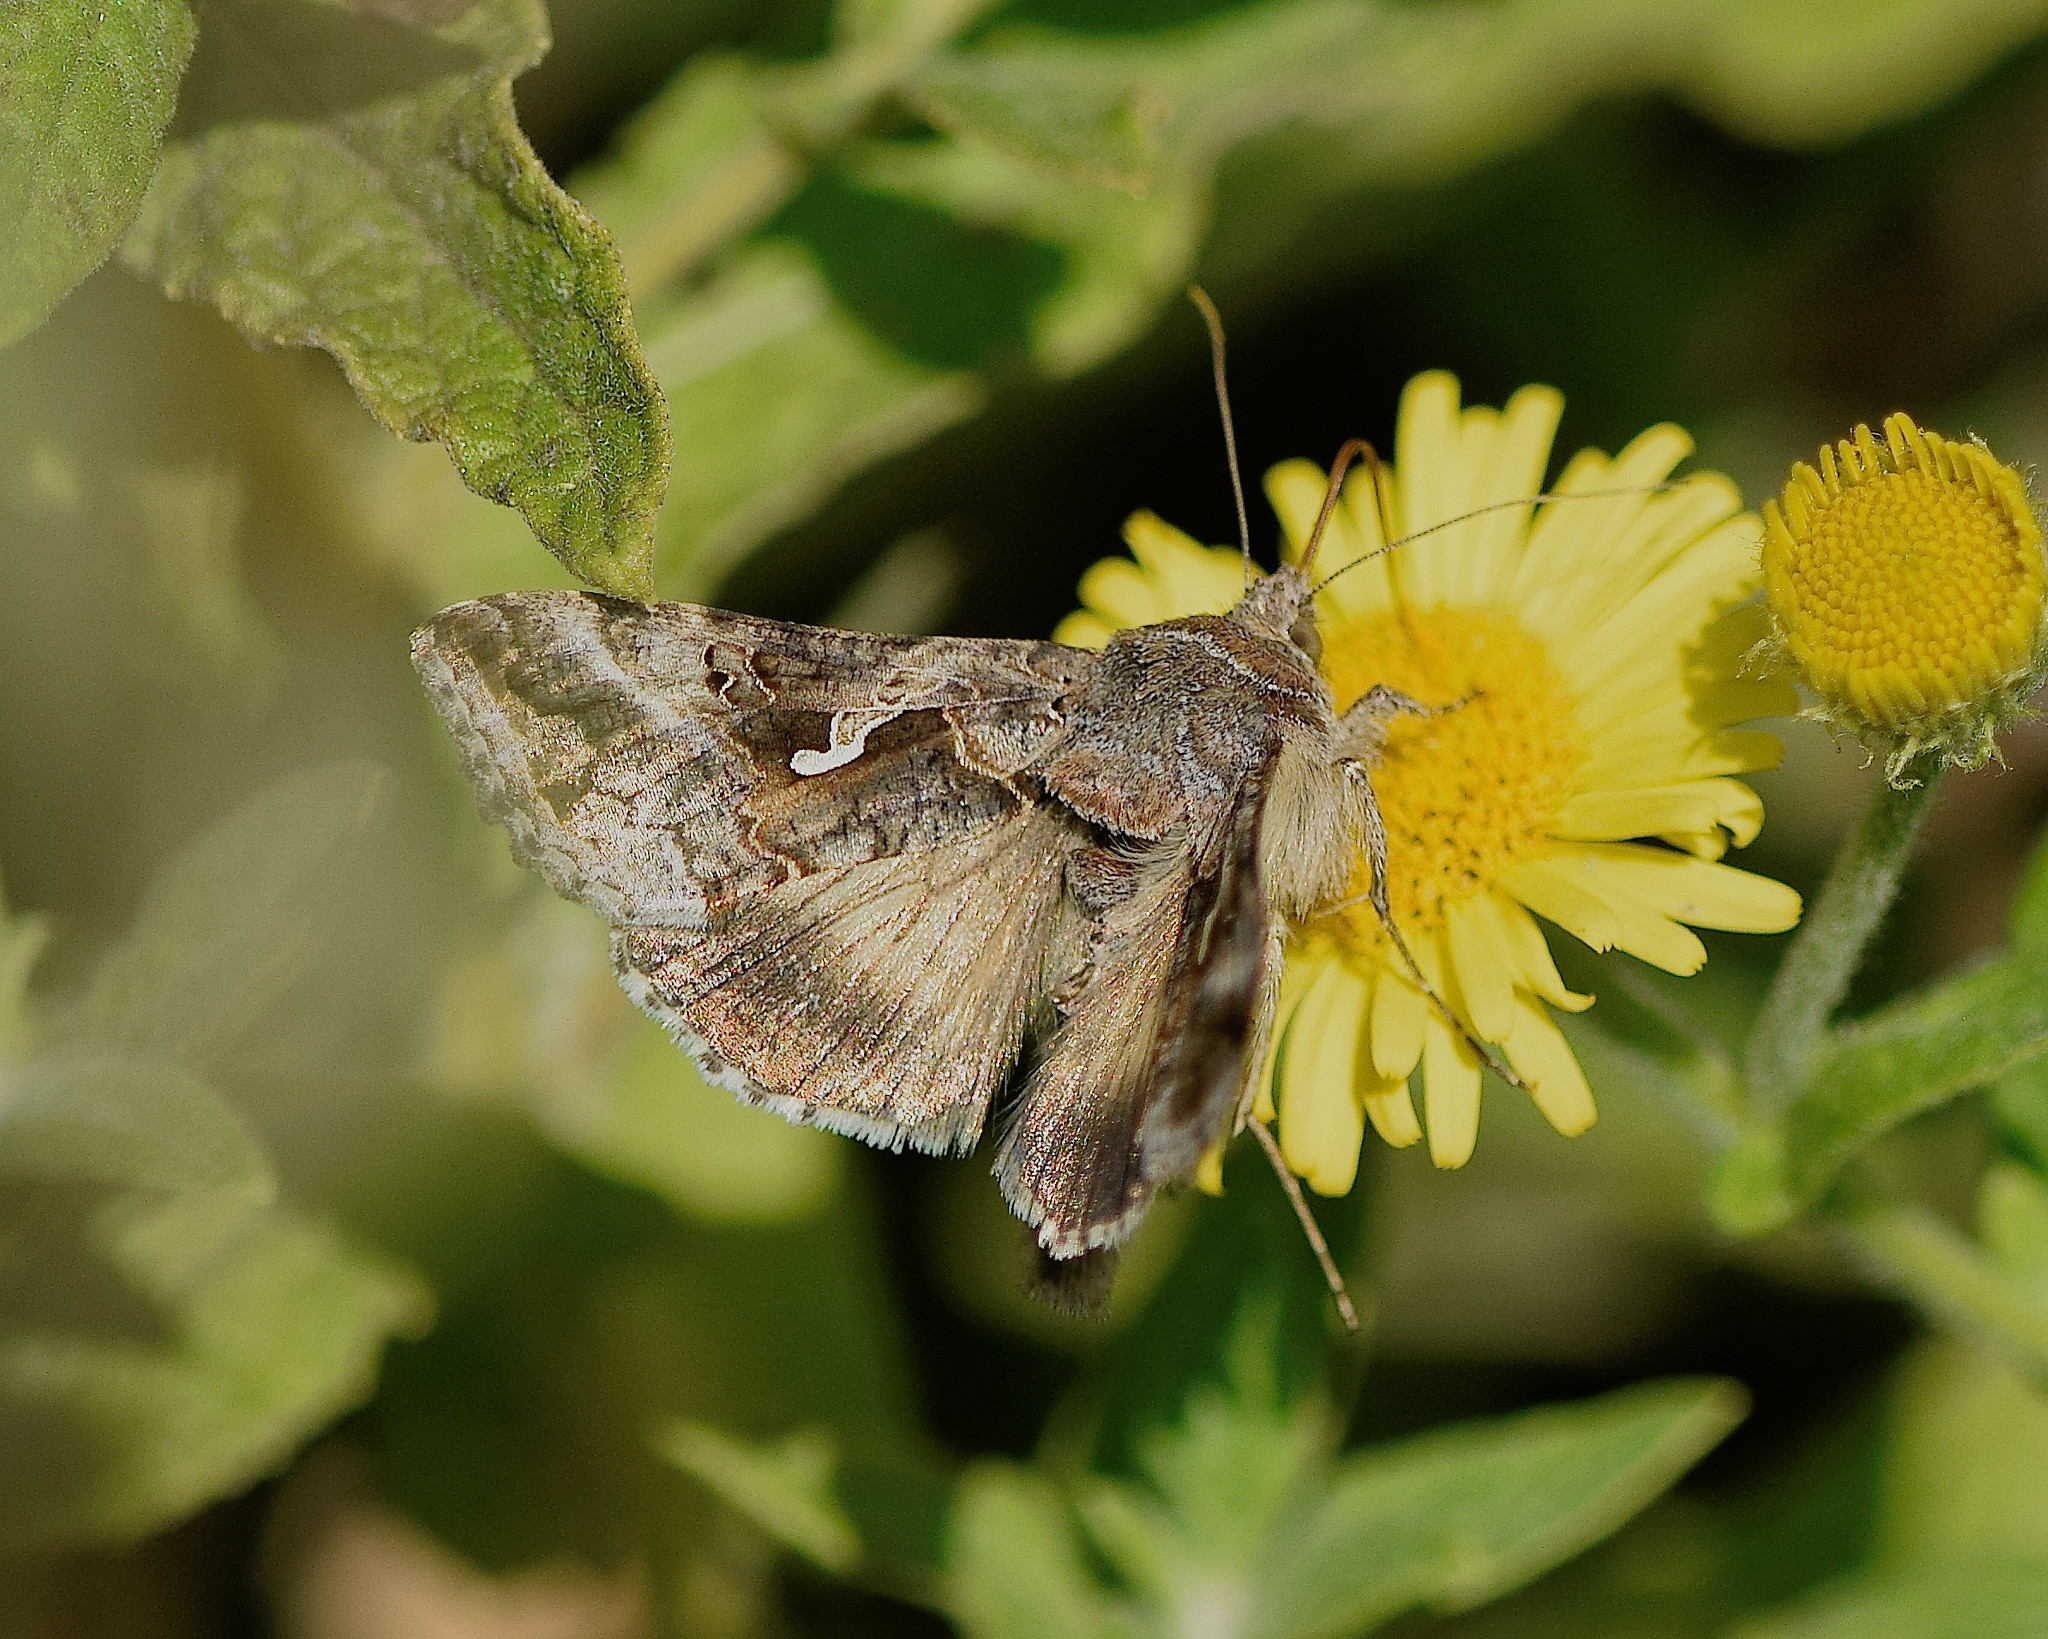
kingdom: Animalia
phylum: Arthropoda
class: Insecta
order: Lepidoptera
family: Noctuidae
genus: Autographa
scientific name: Autographa gamma
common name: Silver y
